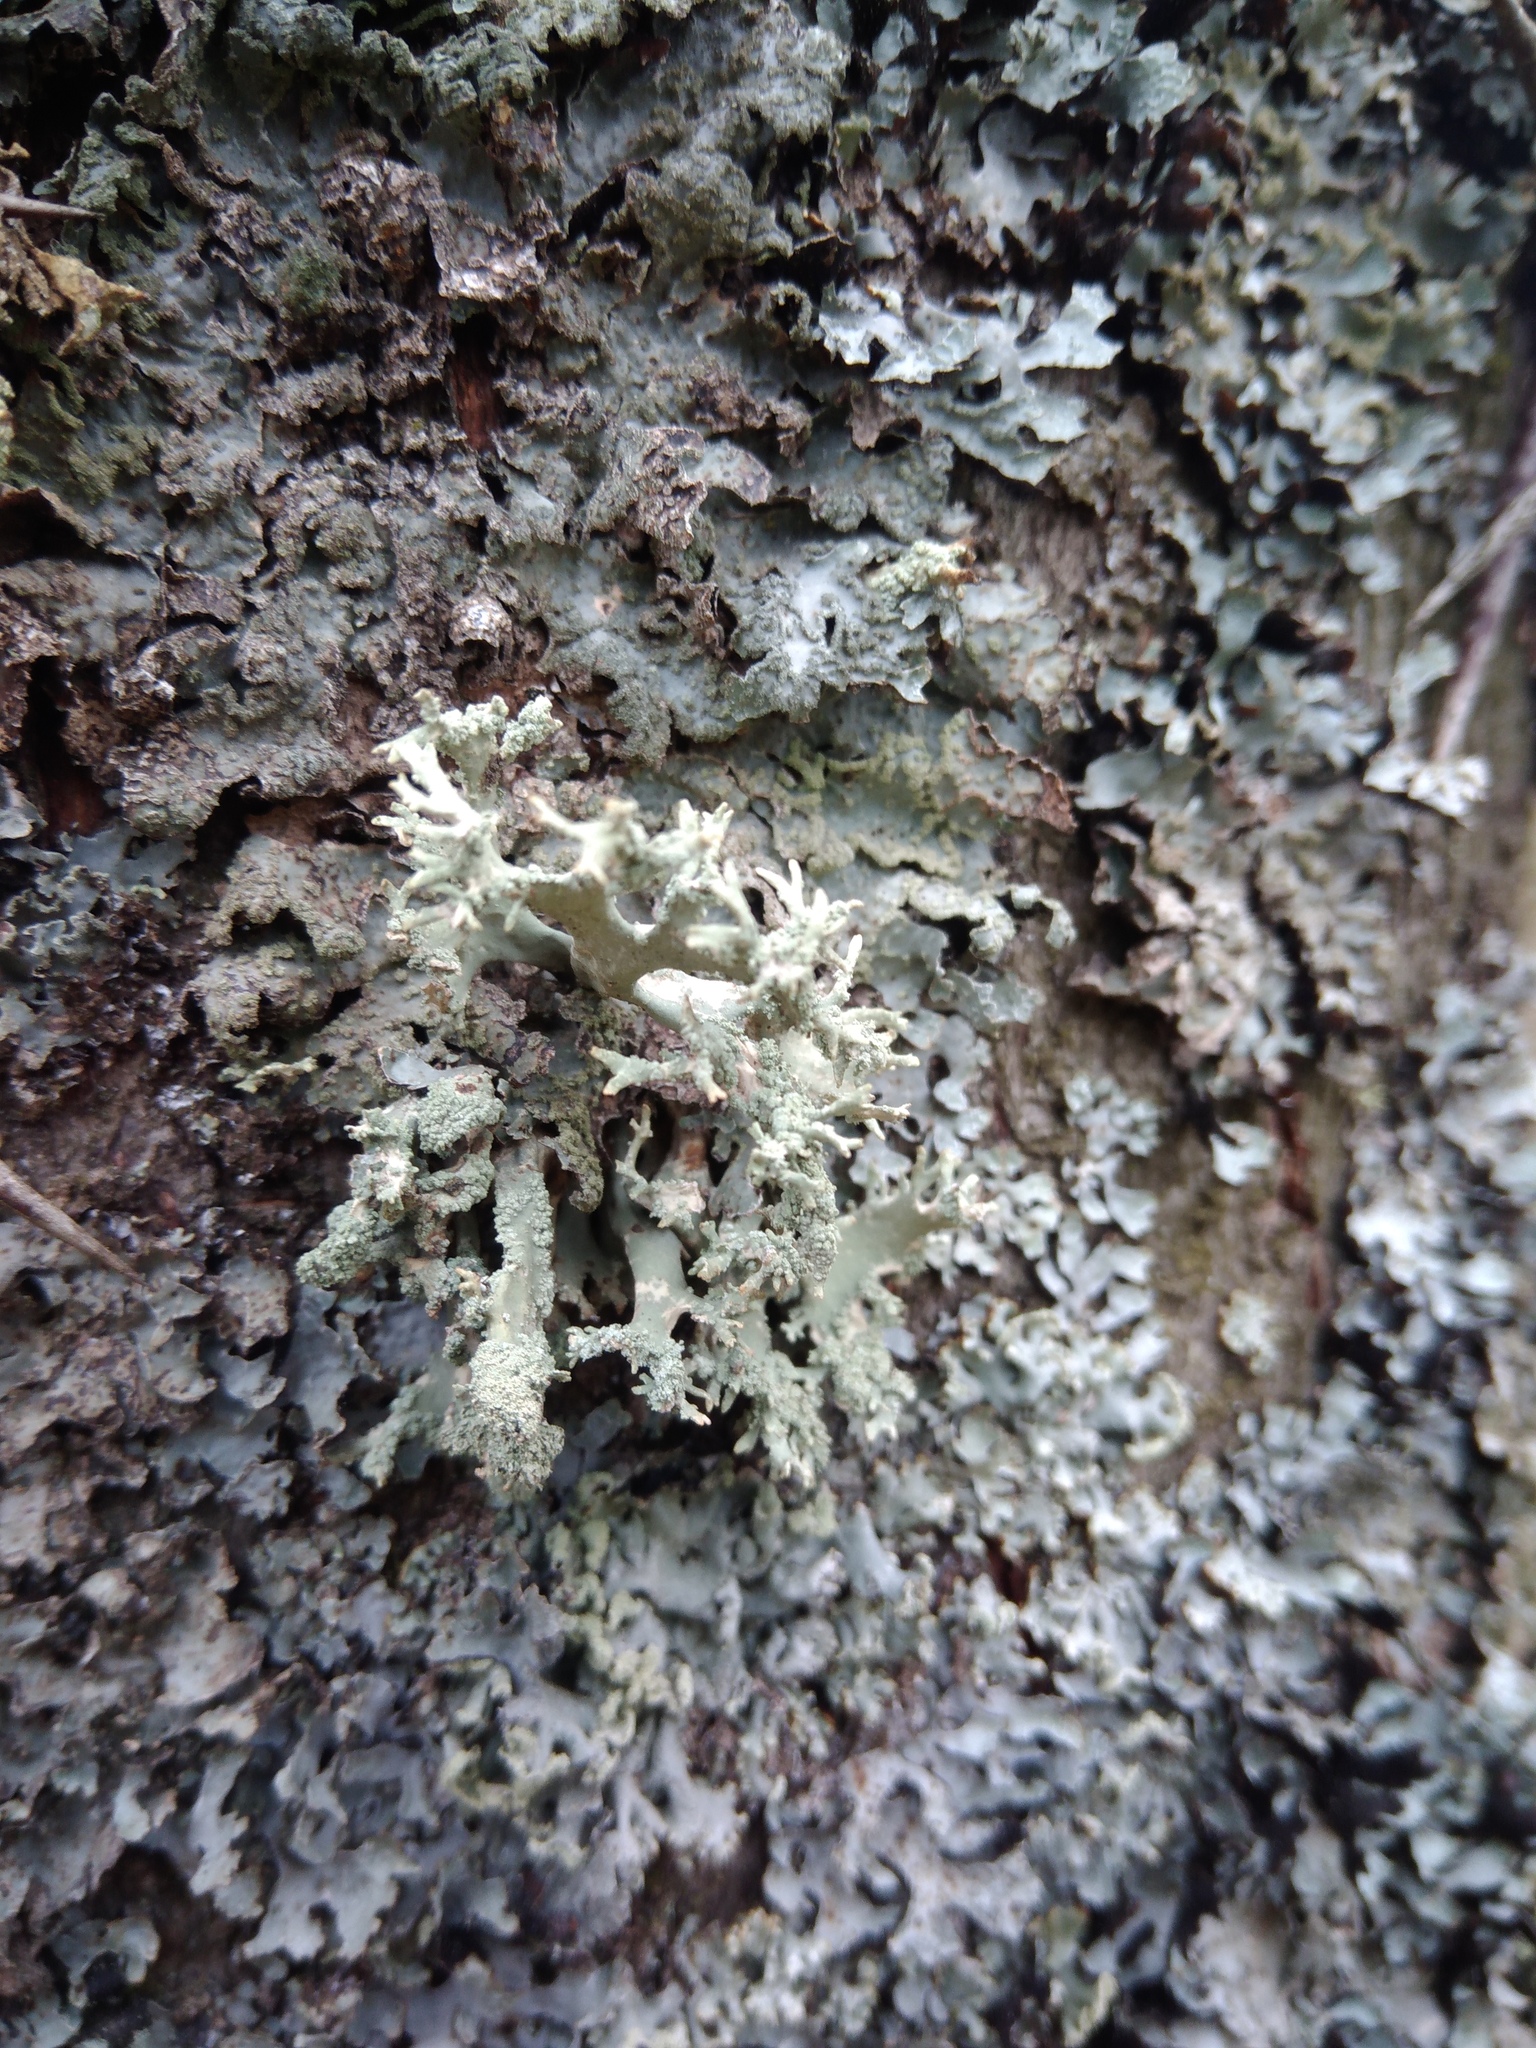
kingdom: Fungi
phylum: Ascomycota
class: Lecanoromycetes
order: Lecanorales
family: Parmeliaceae
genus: Evernia
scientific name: Evernia prunastri
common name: Oak moss
